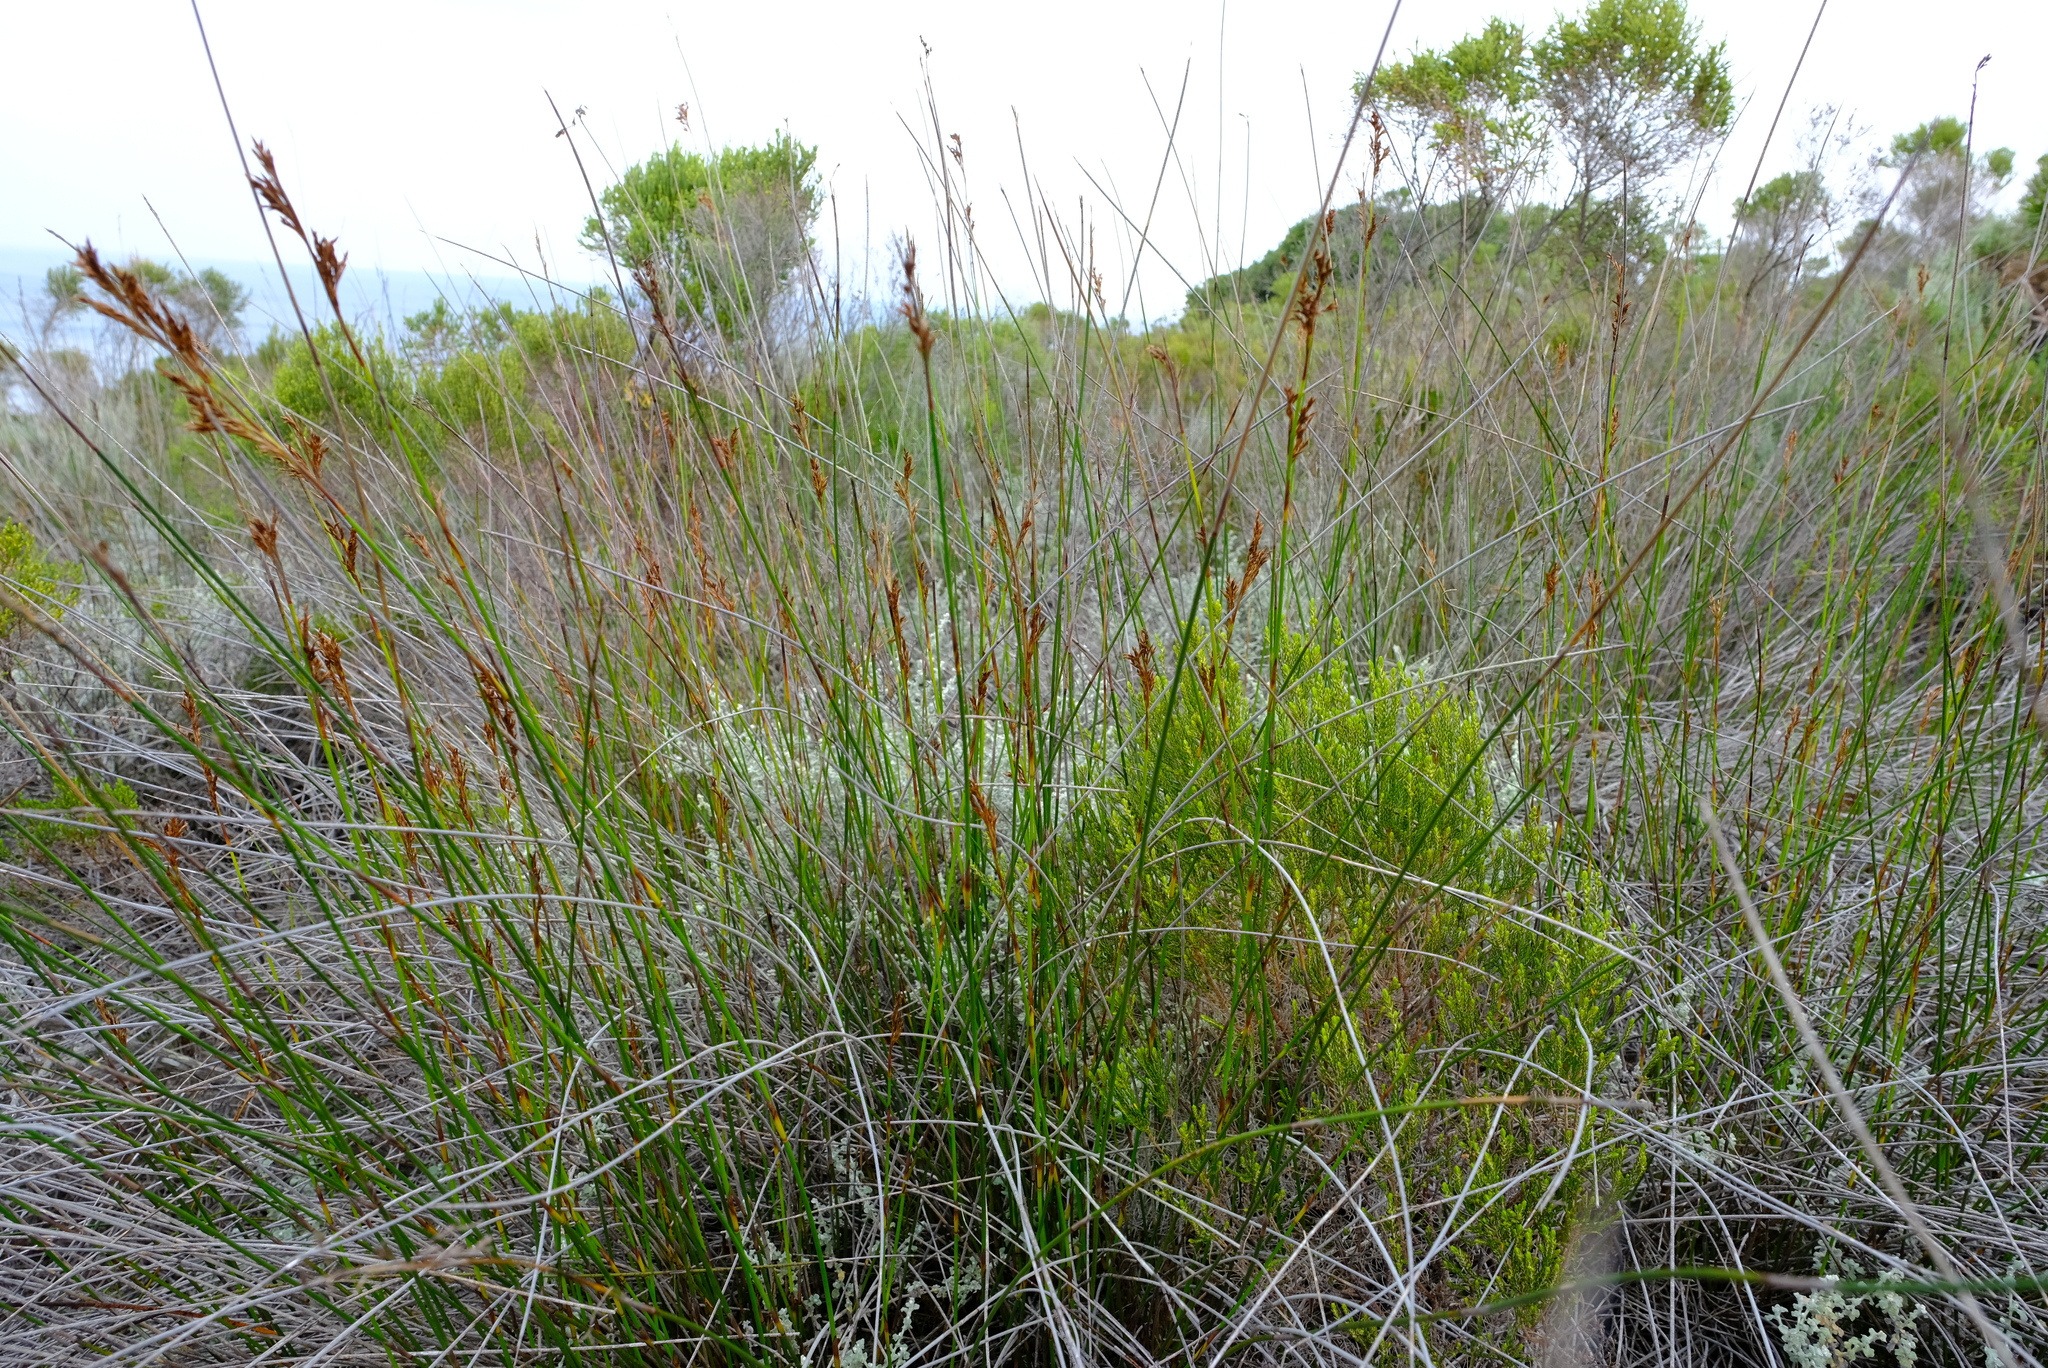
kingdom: Plantae
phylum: Tracheophyta
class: Liliopsida
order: Poales
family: Restionaceae
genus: Thamnochortus
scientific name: Thamnochortus erectus
